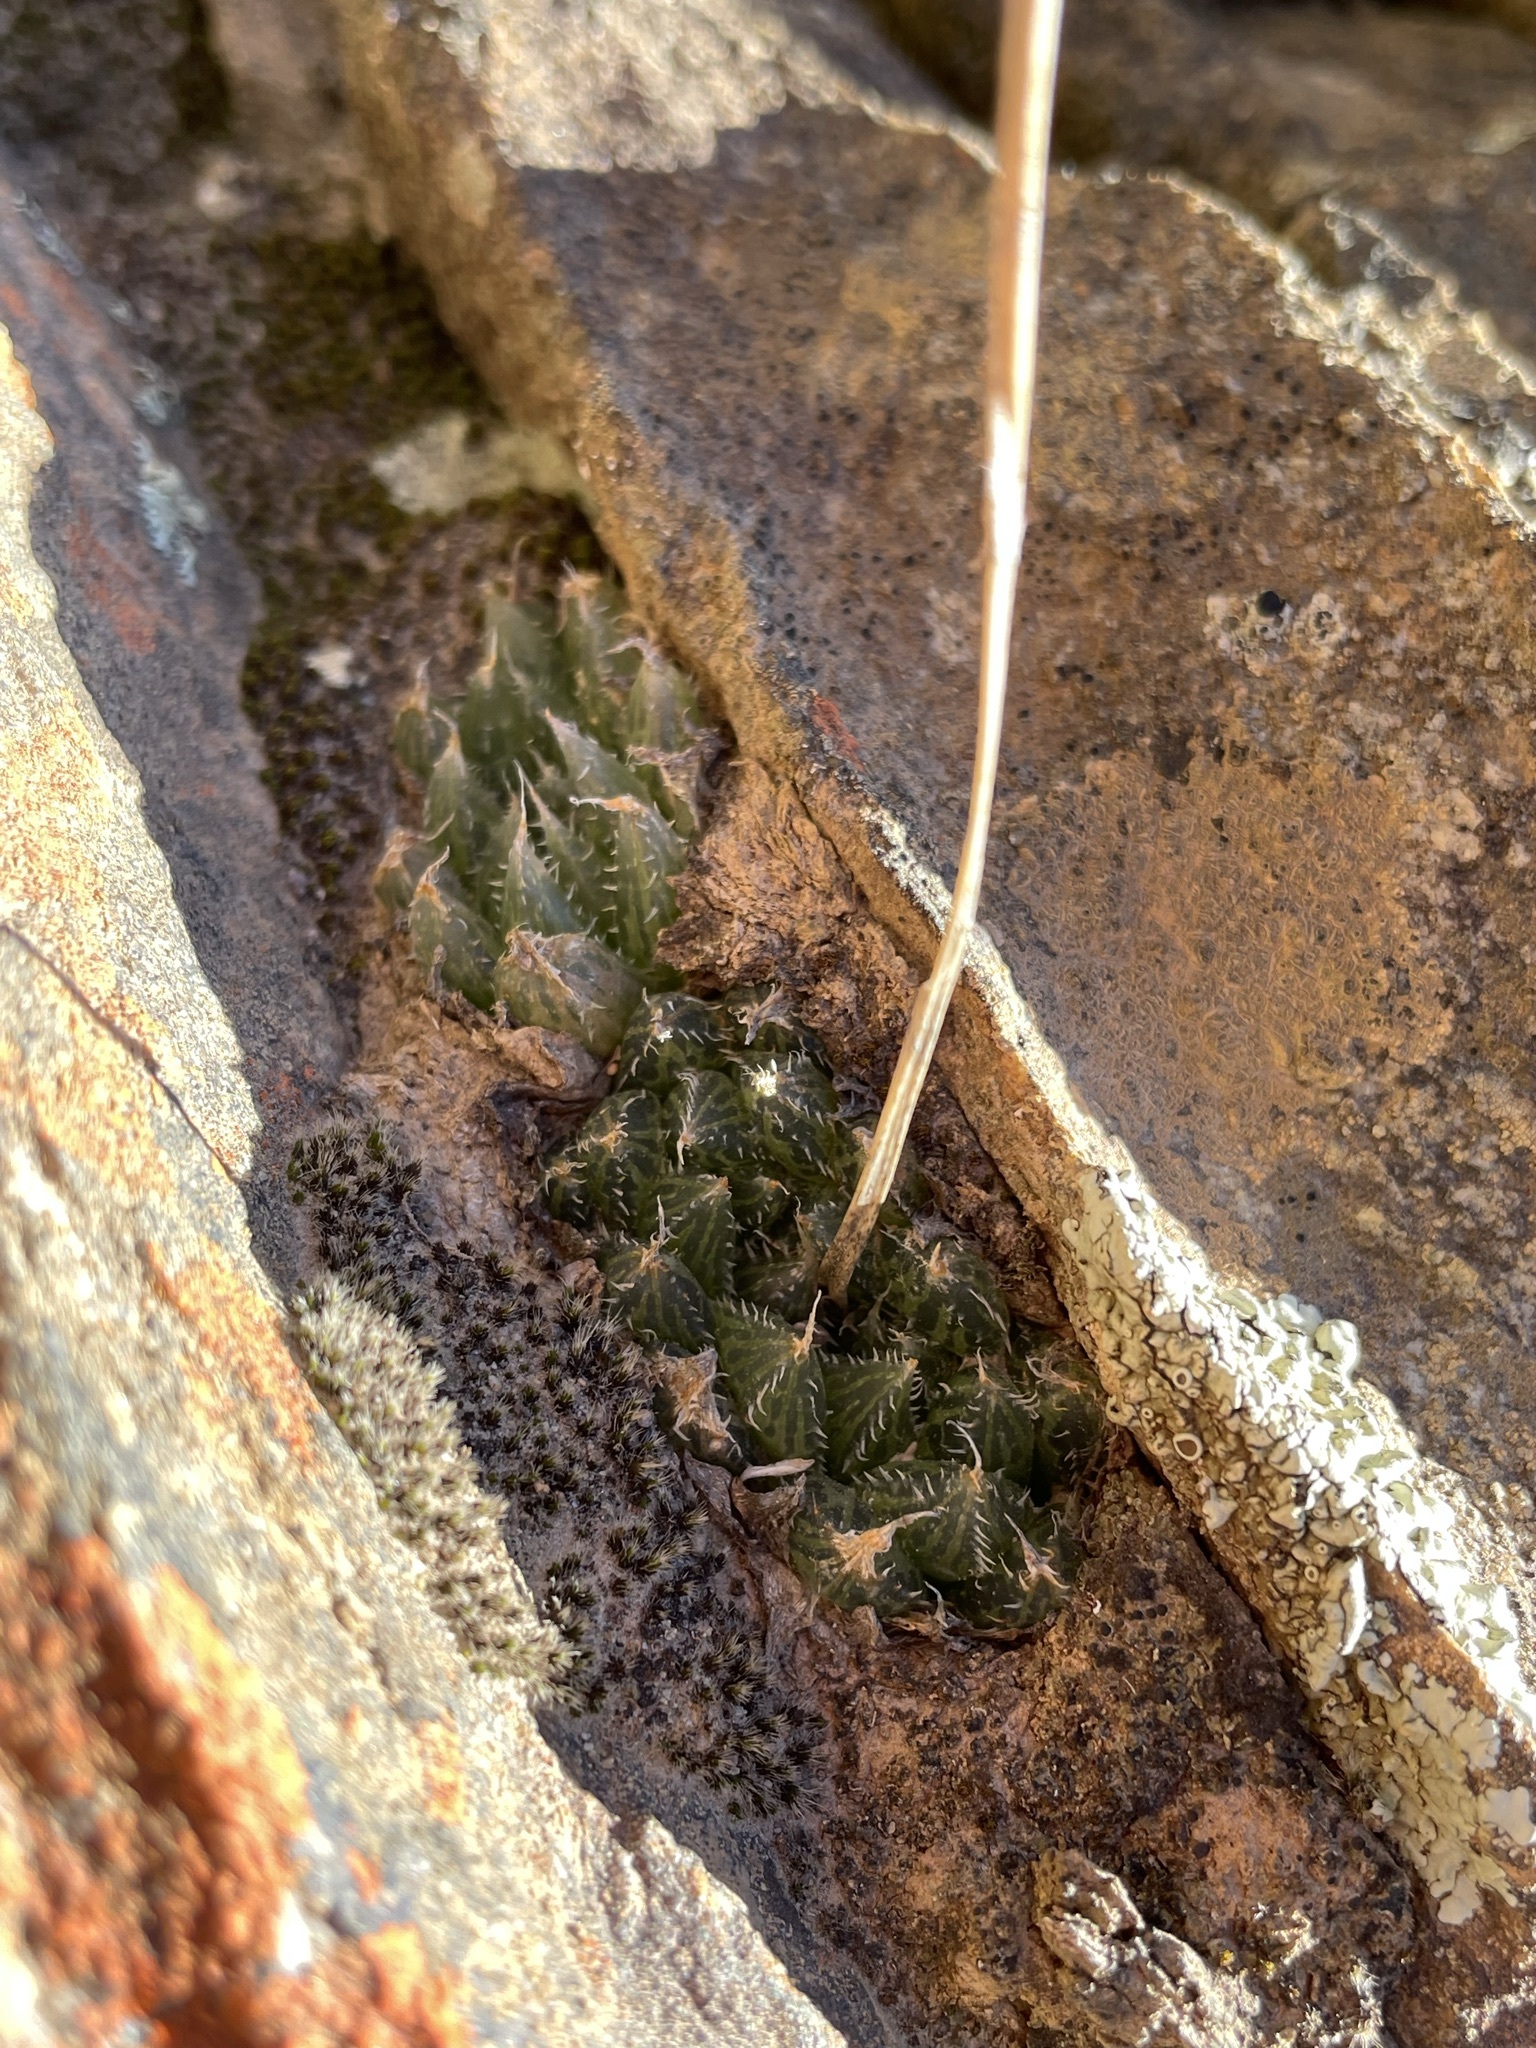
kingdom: Plantae
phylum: Tracheophyta
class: Liliopsida
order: Asparagales
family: Asphodelaceae
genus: Haworthia
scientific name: Haworthia mucronata
